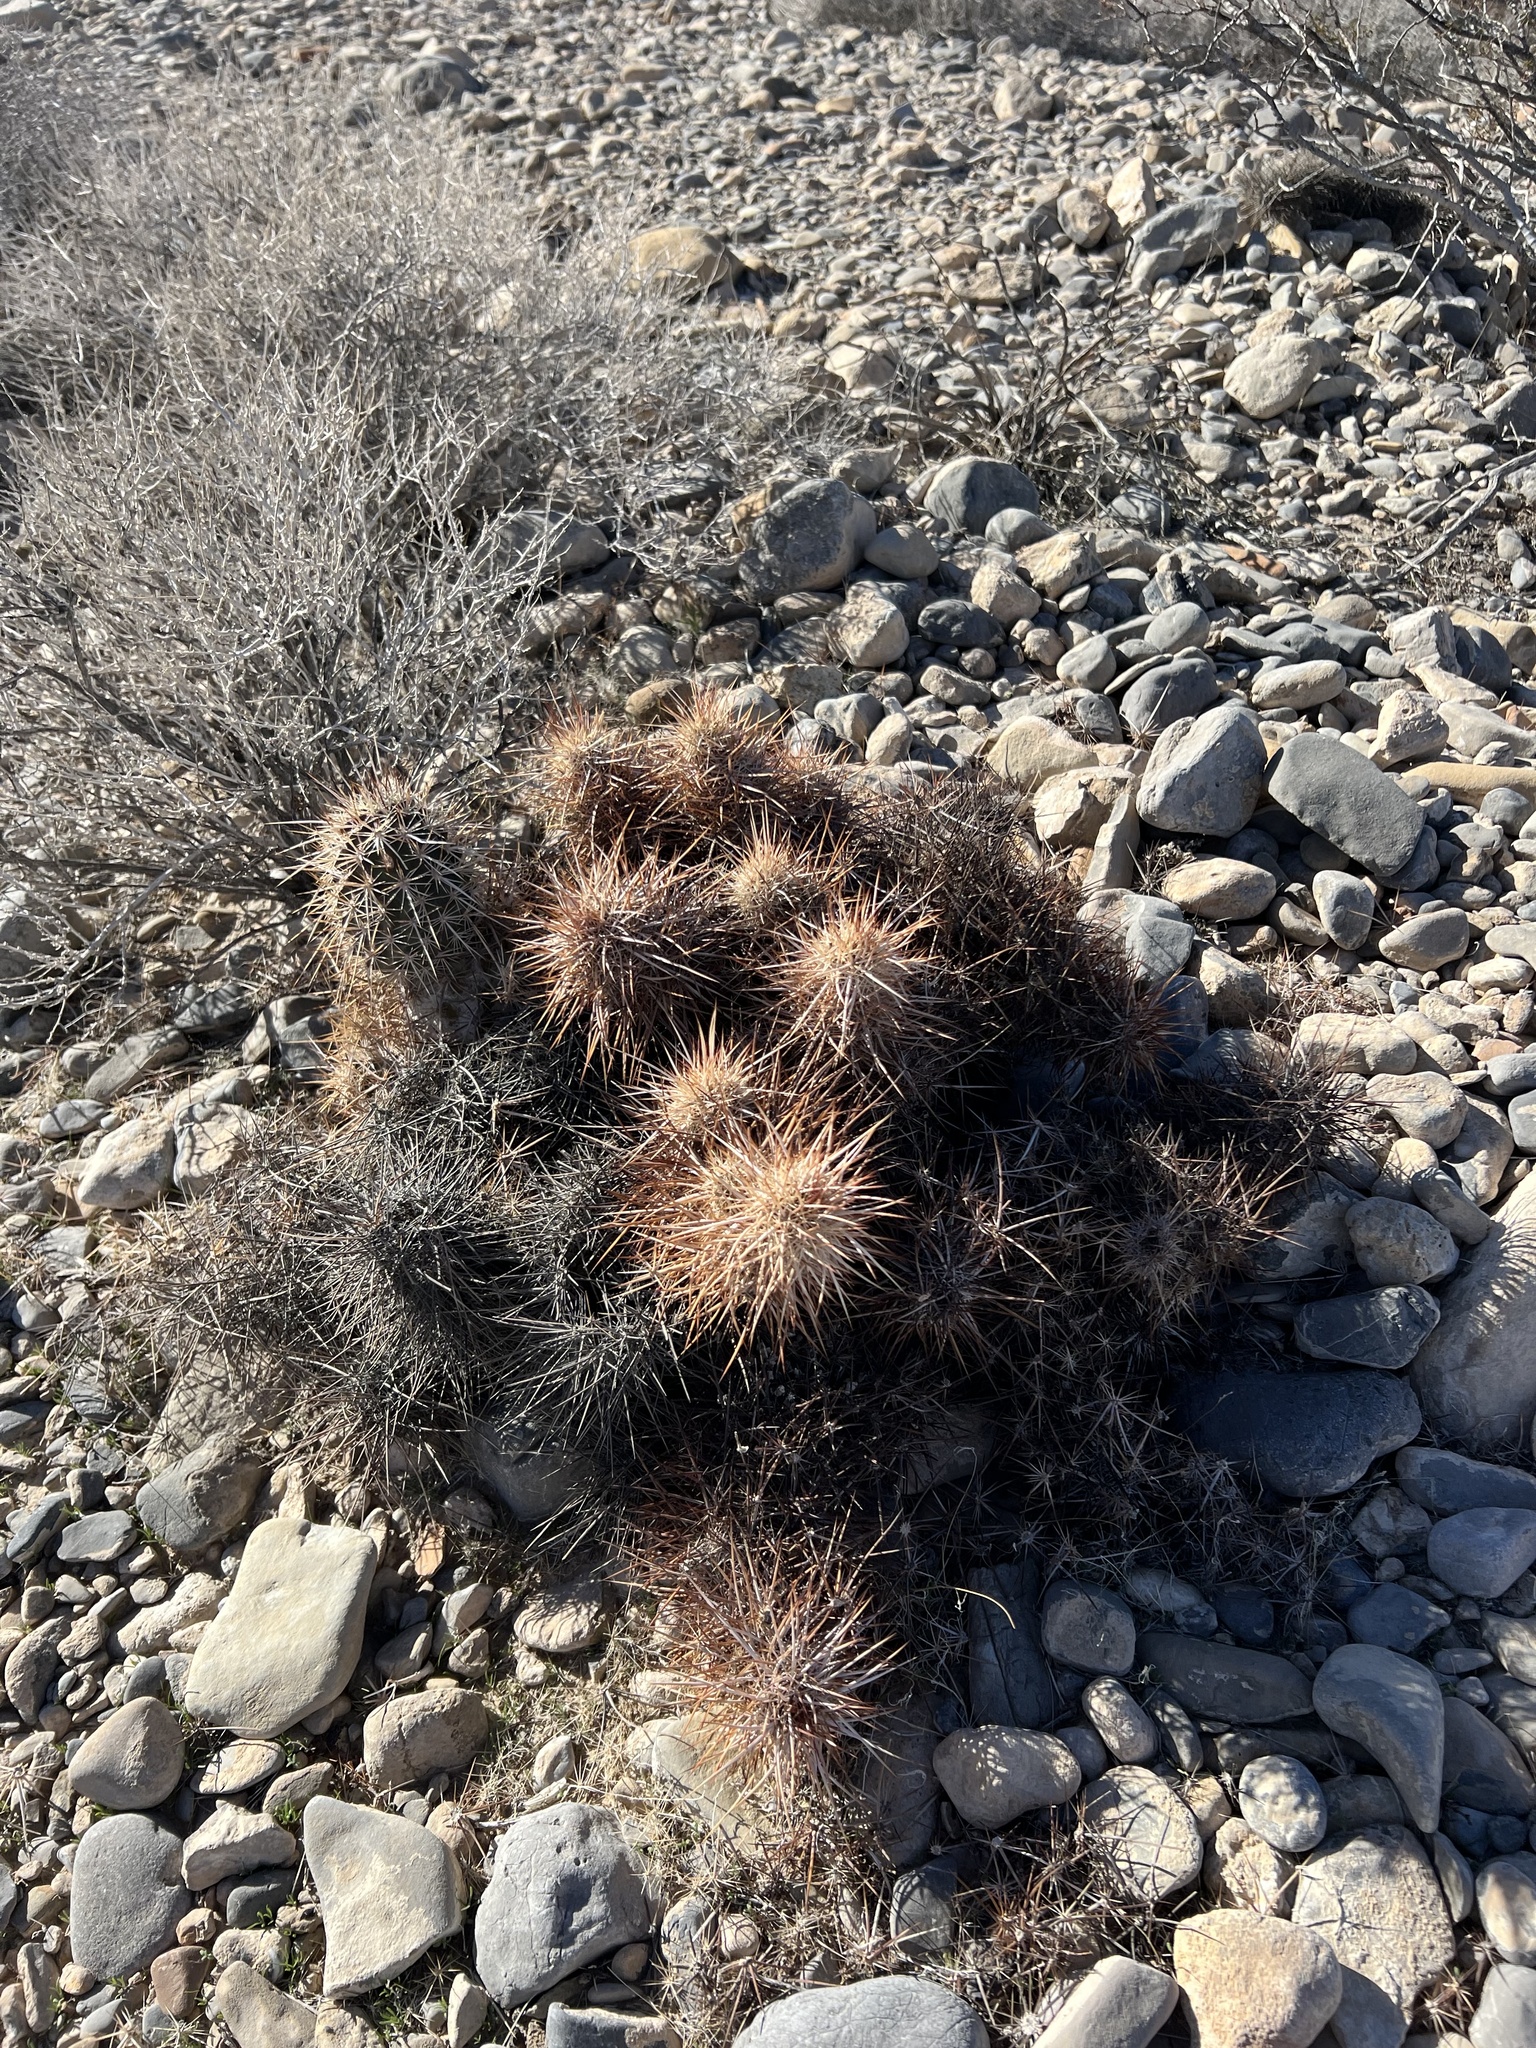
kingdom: Plantae
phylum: Tracheophyta
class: Magnoliopsida
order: Caryophyllales
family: Cactaceae
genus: Echinocereus
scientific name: Echinocereus engelmannii
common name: Engelmann's hedgehog cactus
